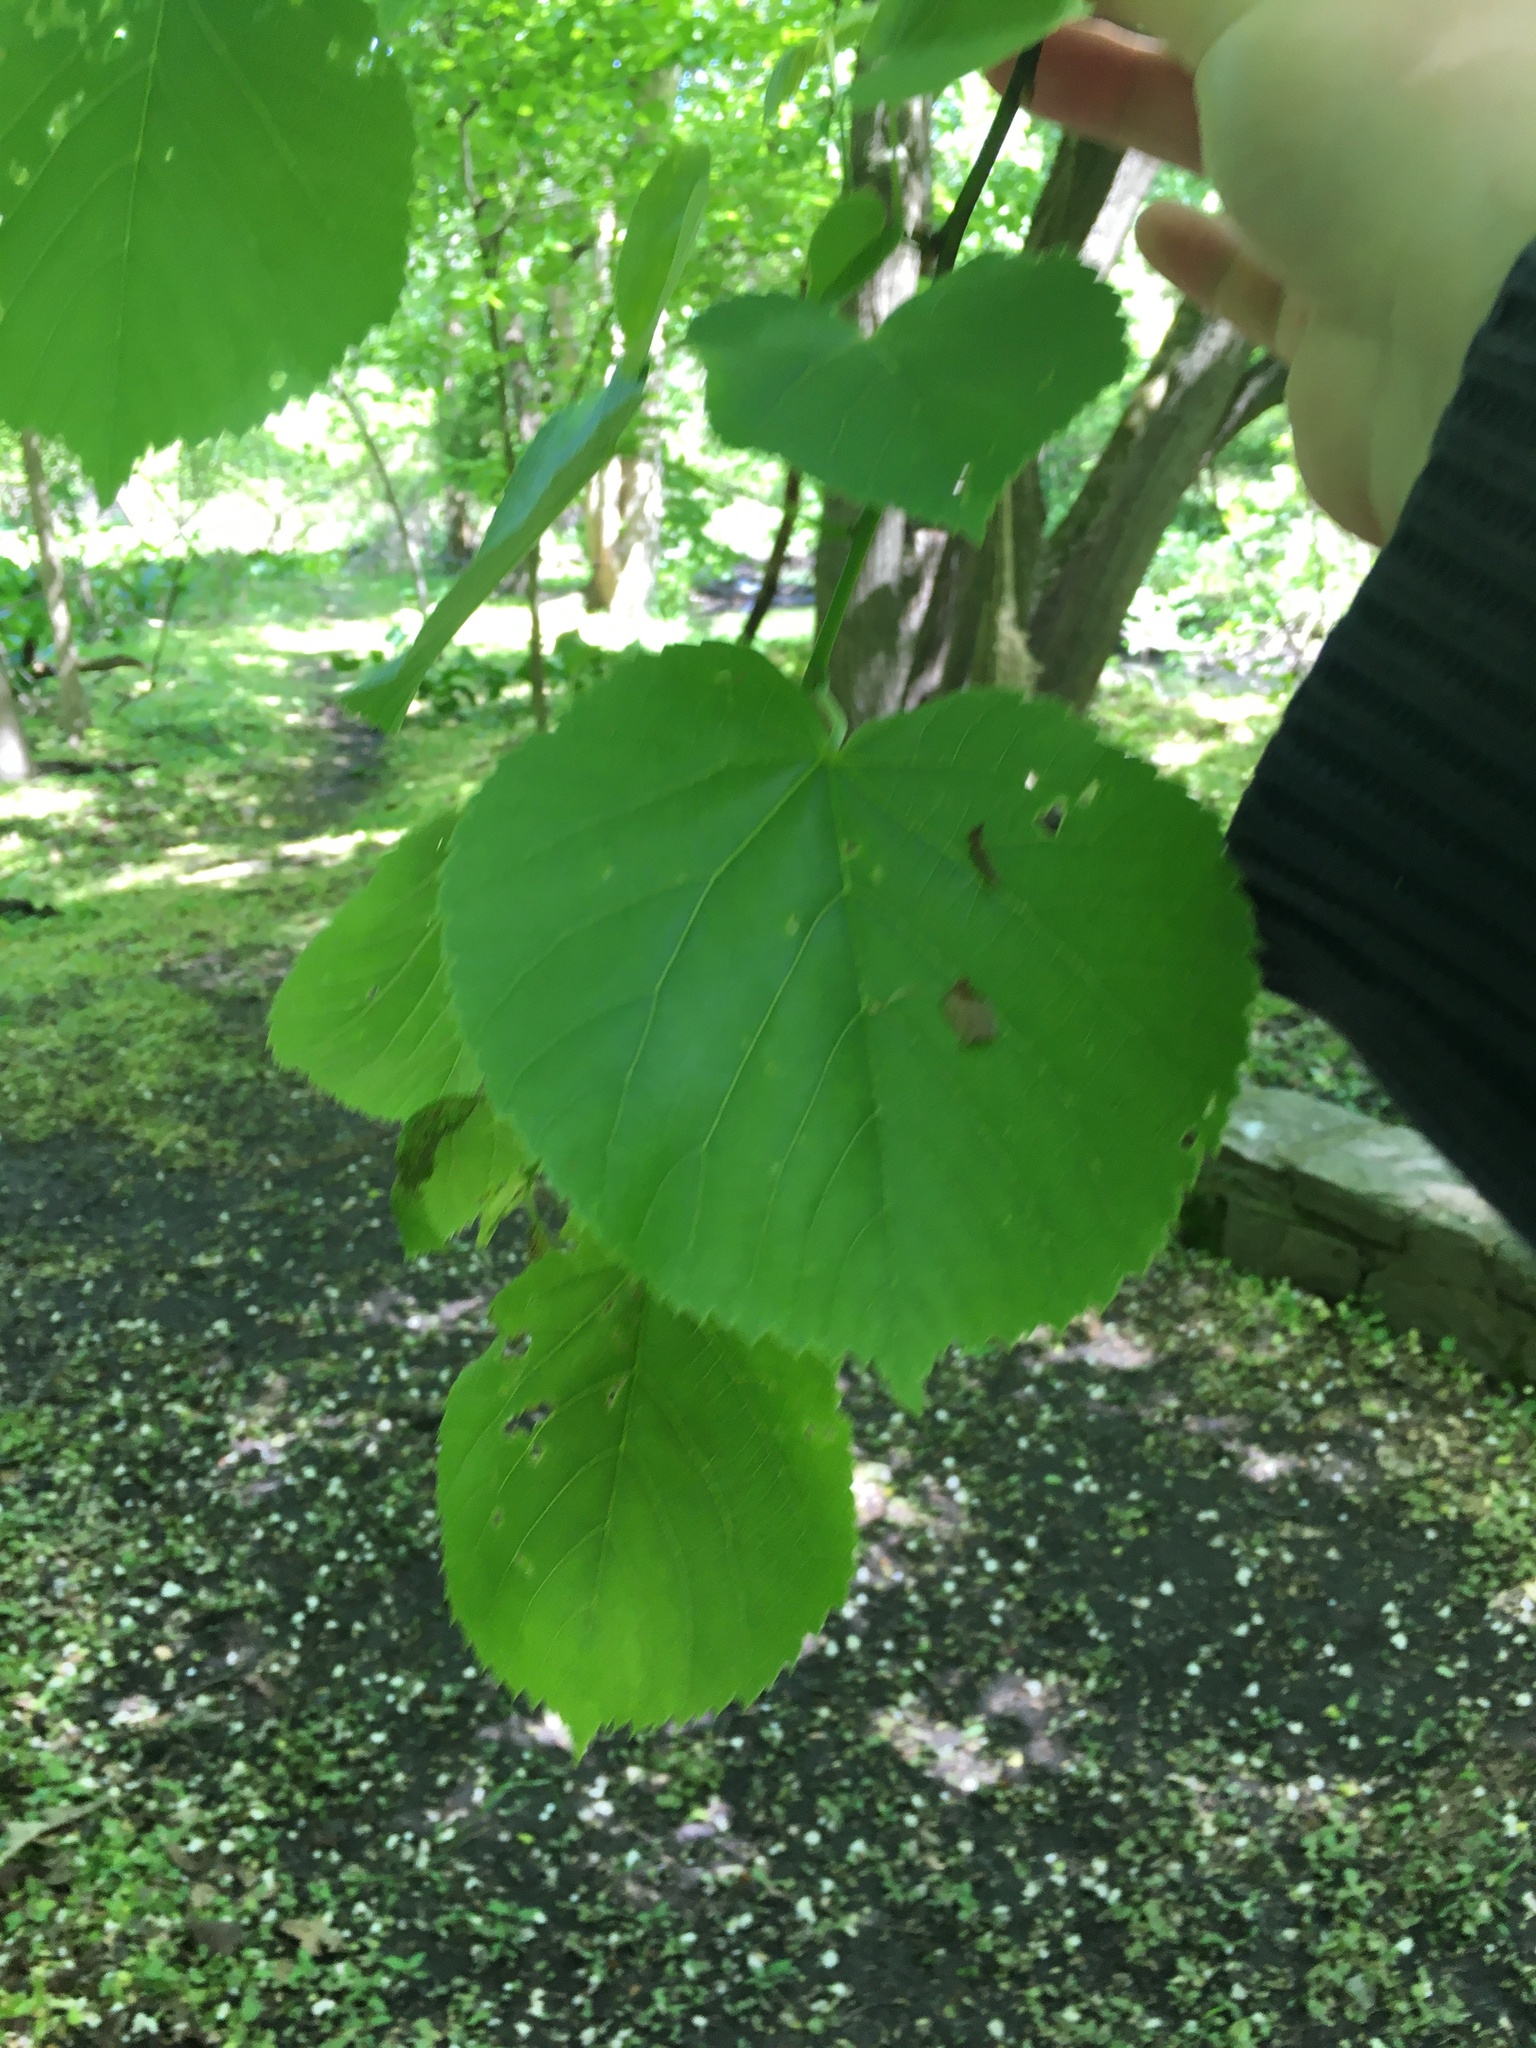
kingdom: Plantae
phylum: Tracheophyta
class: Magnoliopsida
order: Malvales
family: Malvaceae
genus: Tilia
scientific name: Tilia americana
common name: Basswood
